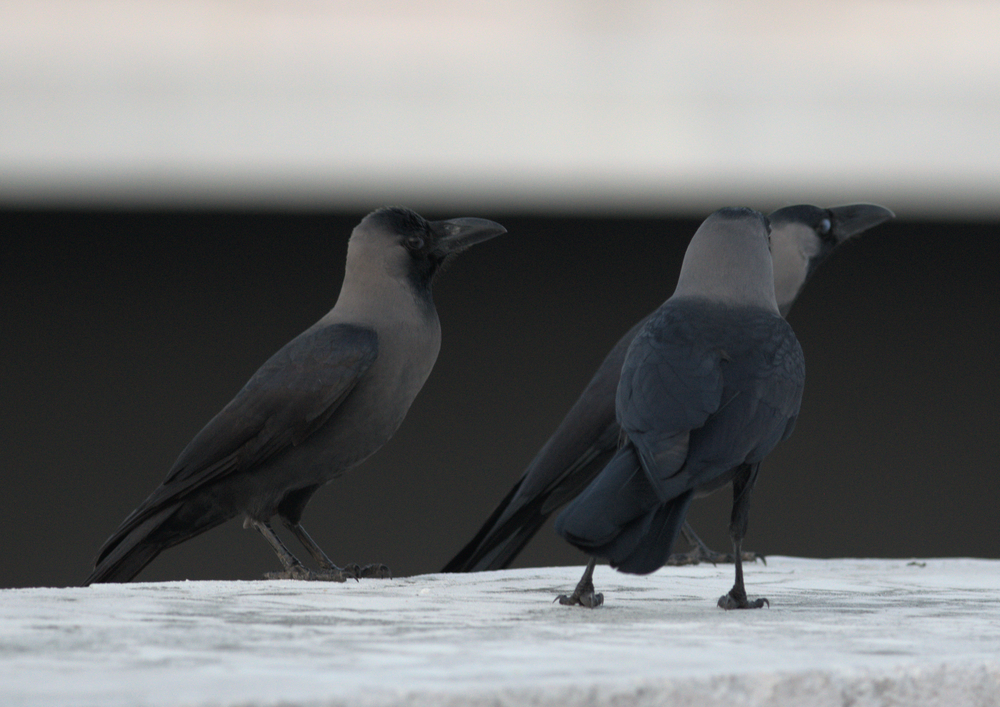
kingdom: Animalia
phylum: Chordata
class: Aves
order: Passeriformes
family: Corvidae
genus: Corvus
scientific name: Corvus splendens
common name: House crow
